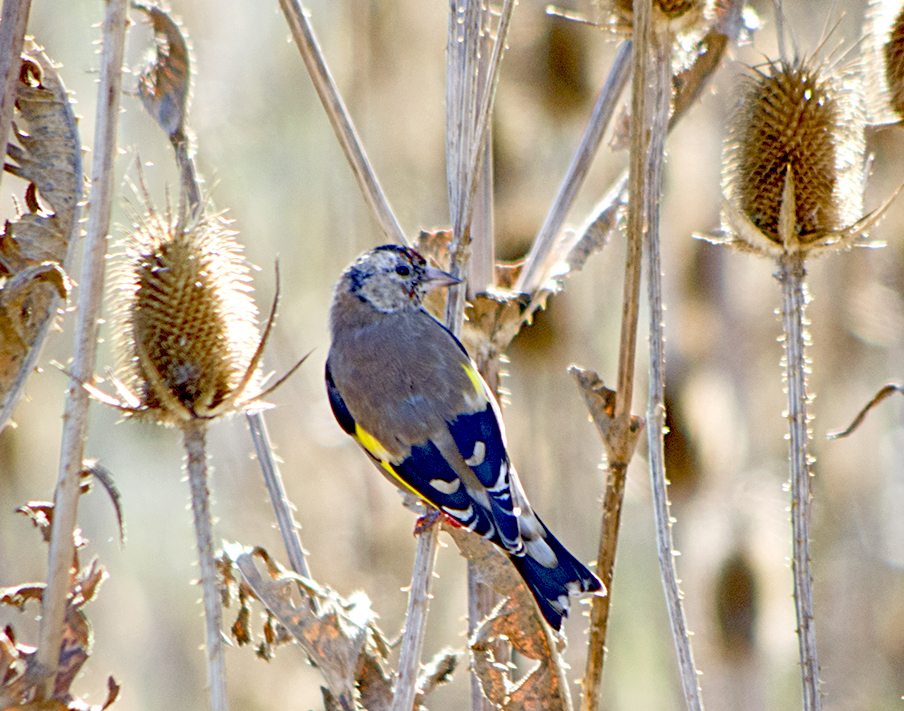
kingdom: Animalia
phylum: Chordata
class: Aves
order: Passeriformes
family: Fringillidae
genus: Carduelis
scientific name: Carduelis carduelis
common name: European goldfinch
